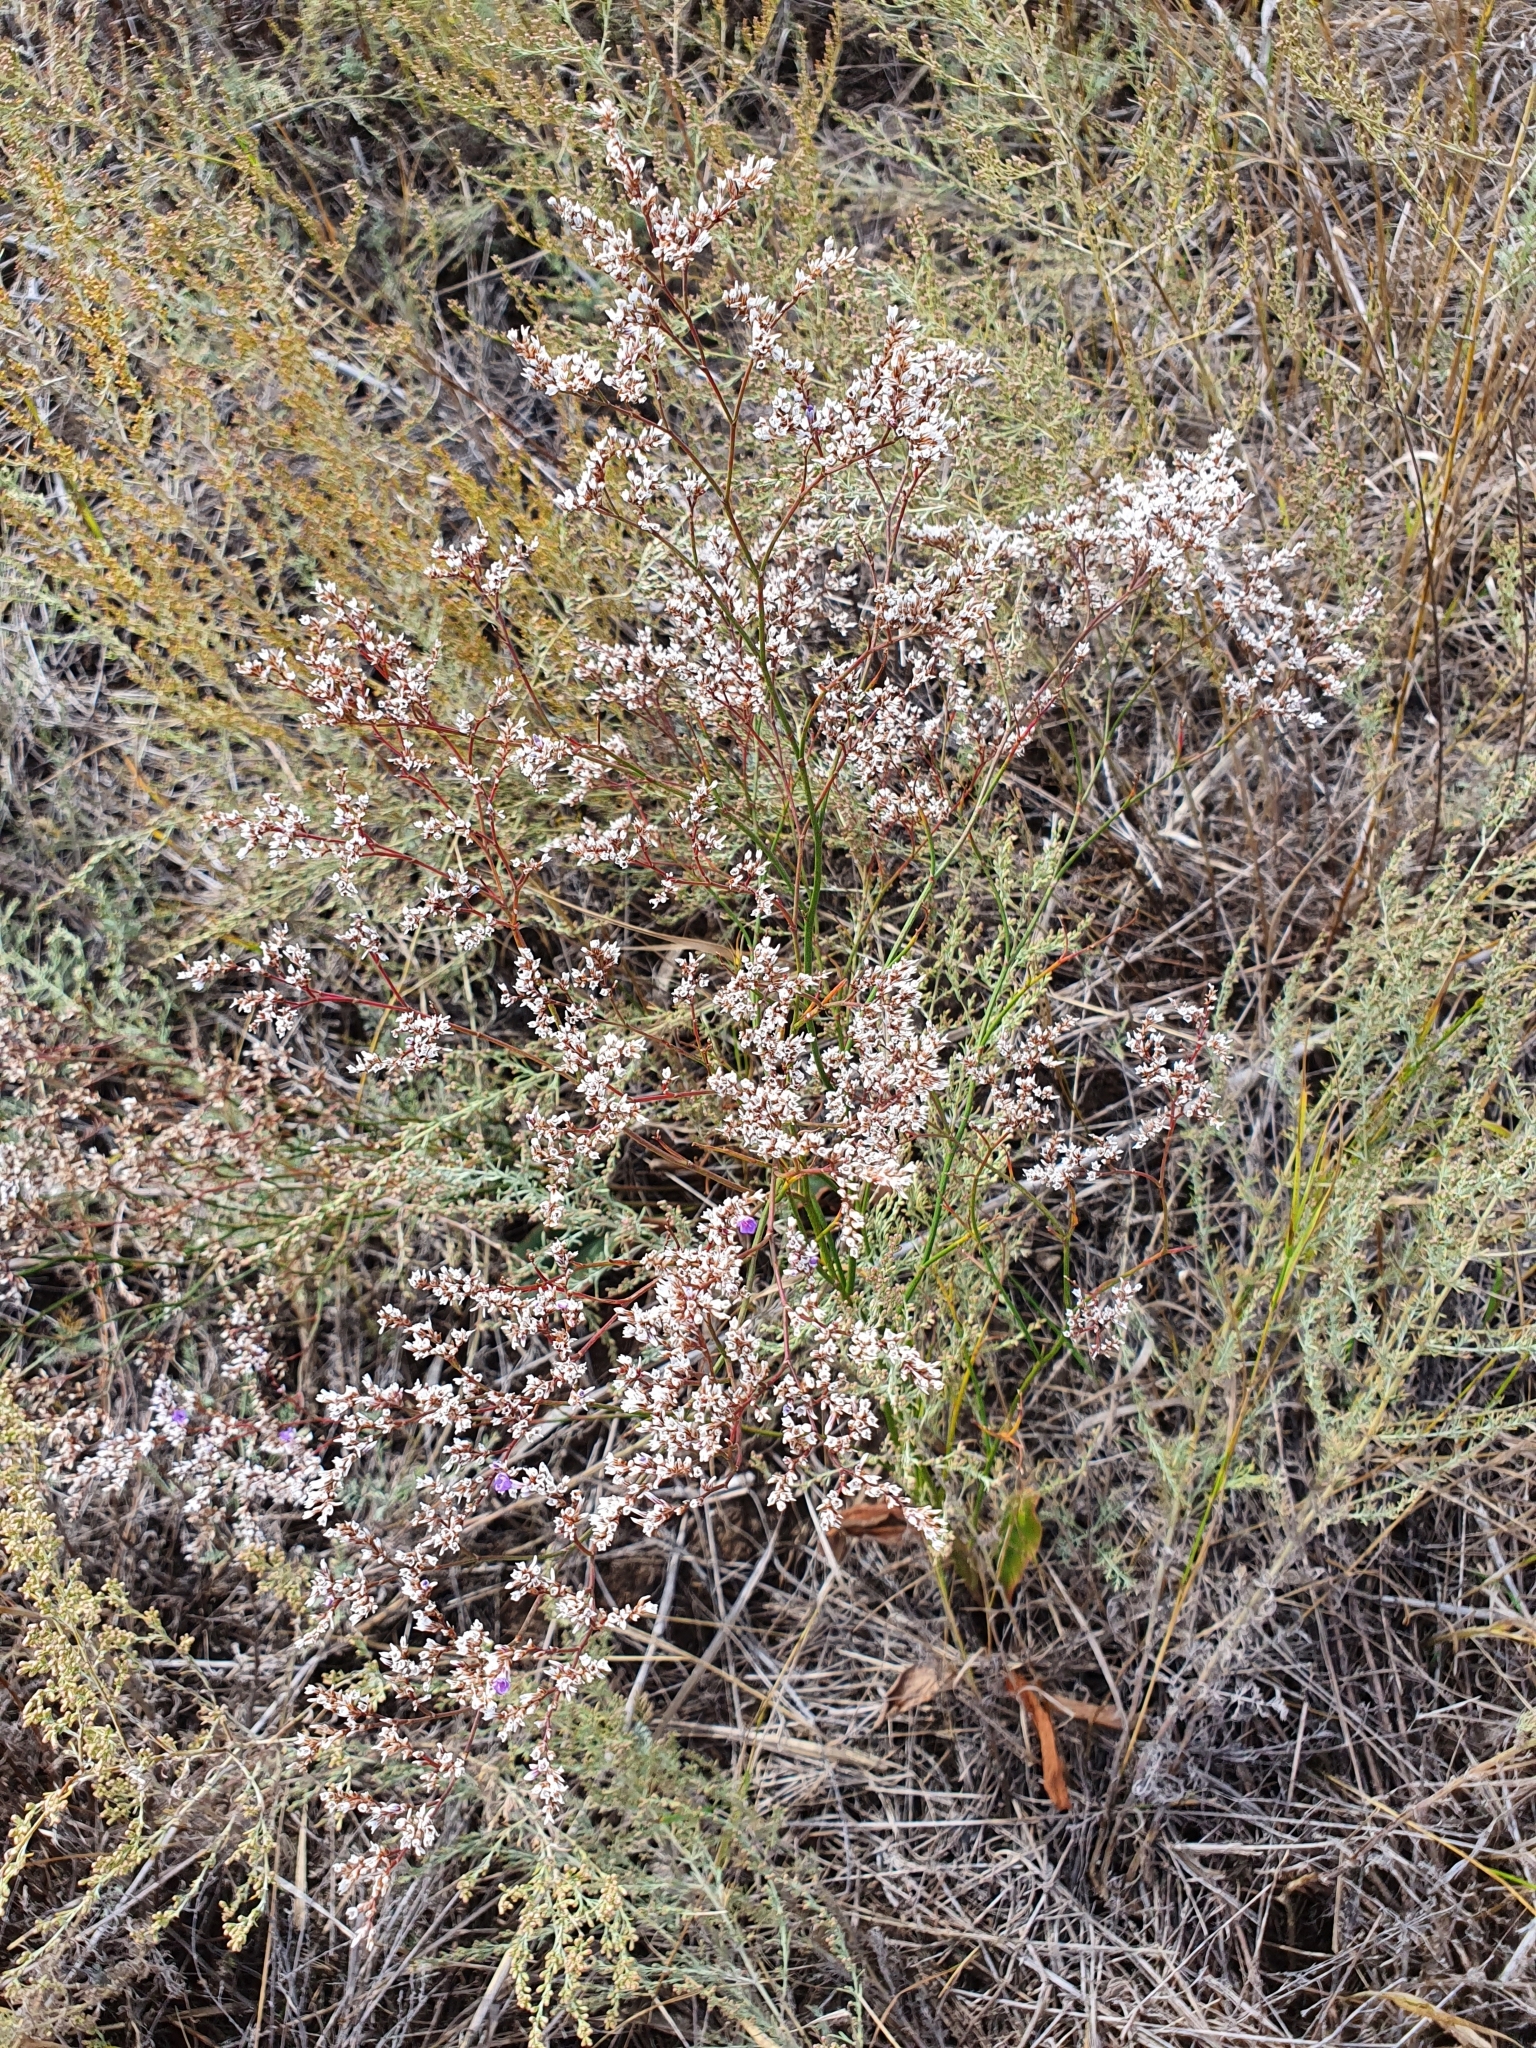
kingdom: Plantae
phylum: Tracheophyta
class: Magnoliopsida
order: Caryophyllales
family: Plumbaginaceae
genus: Limonium
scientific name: Limonium gmelini
